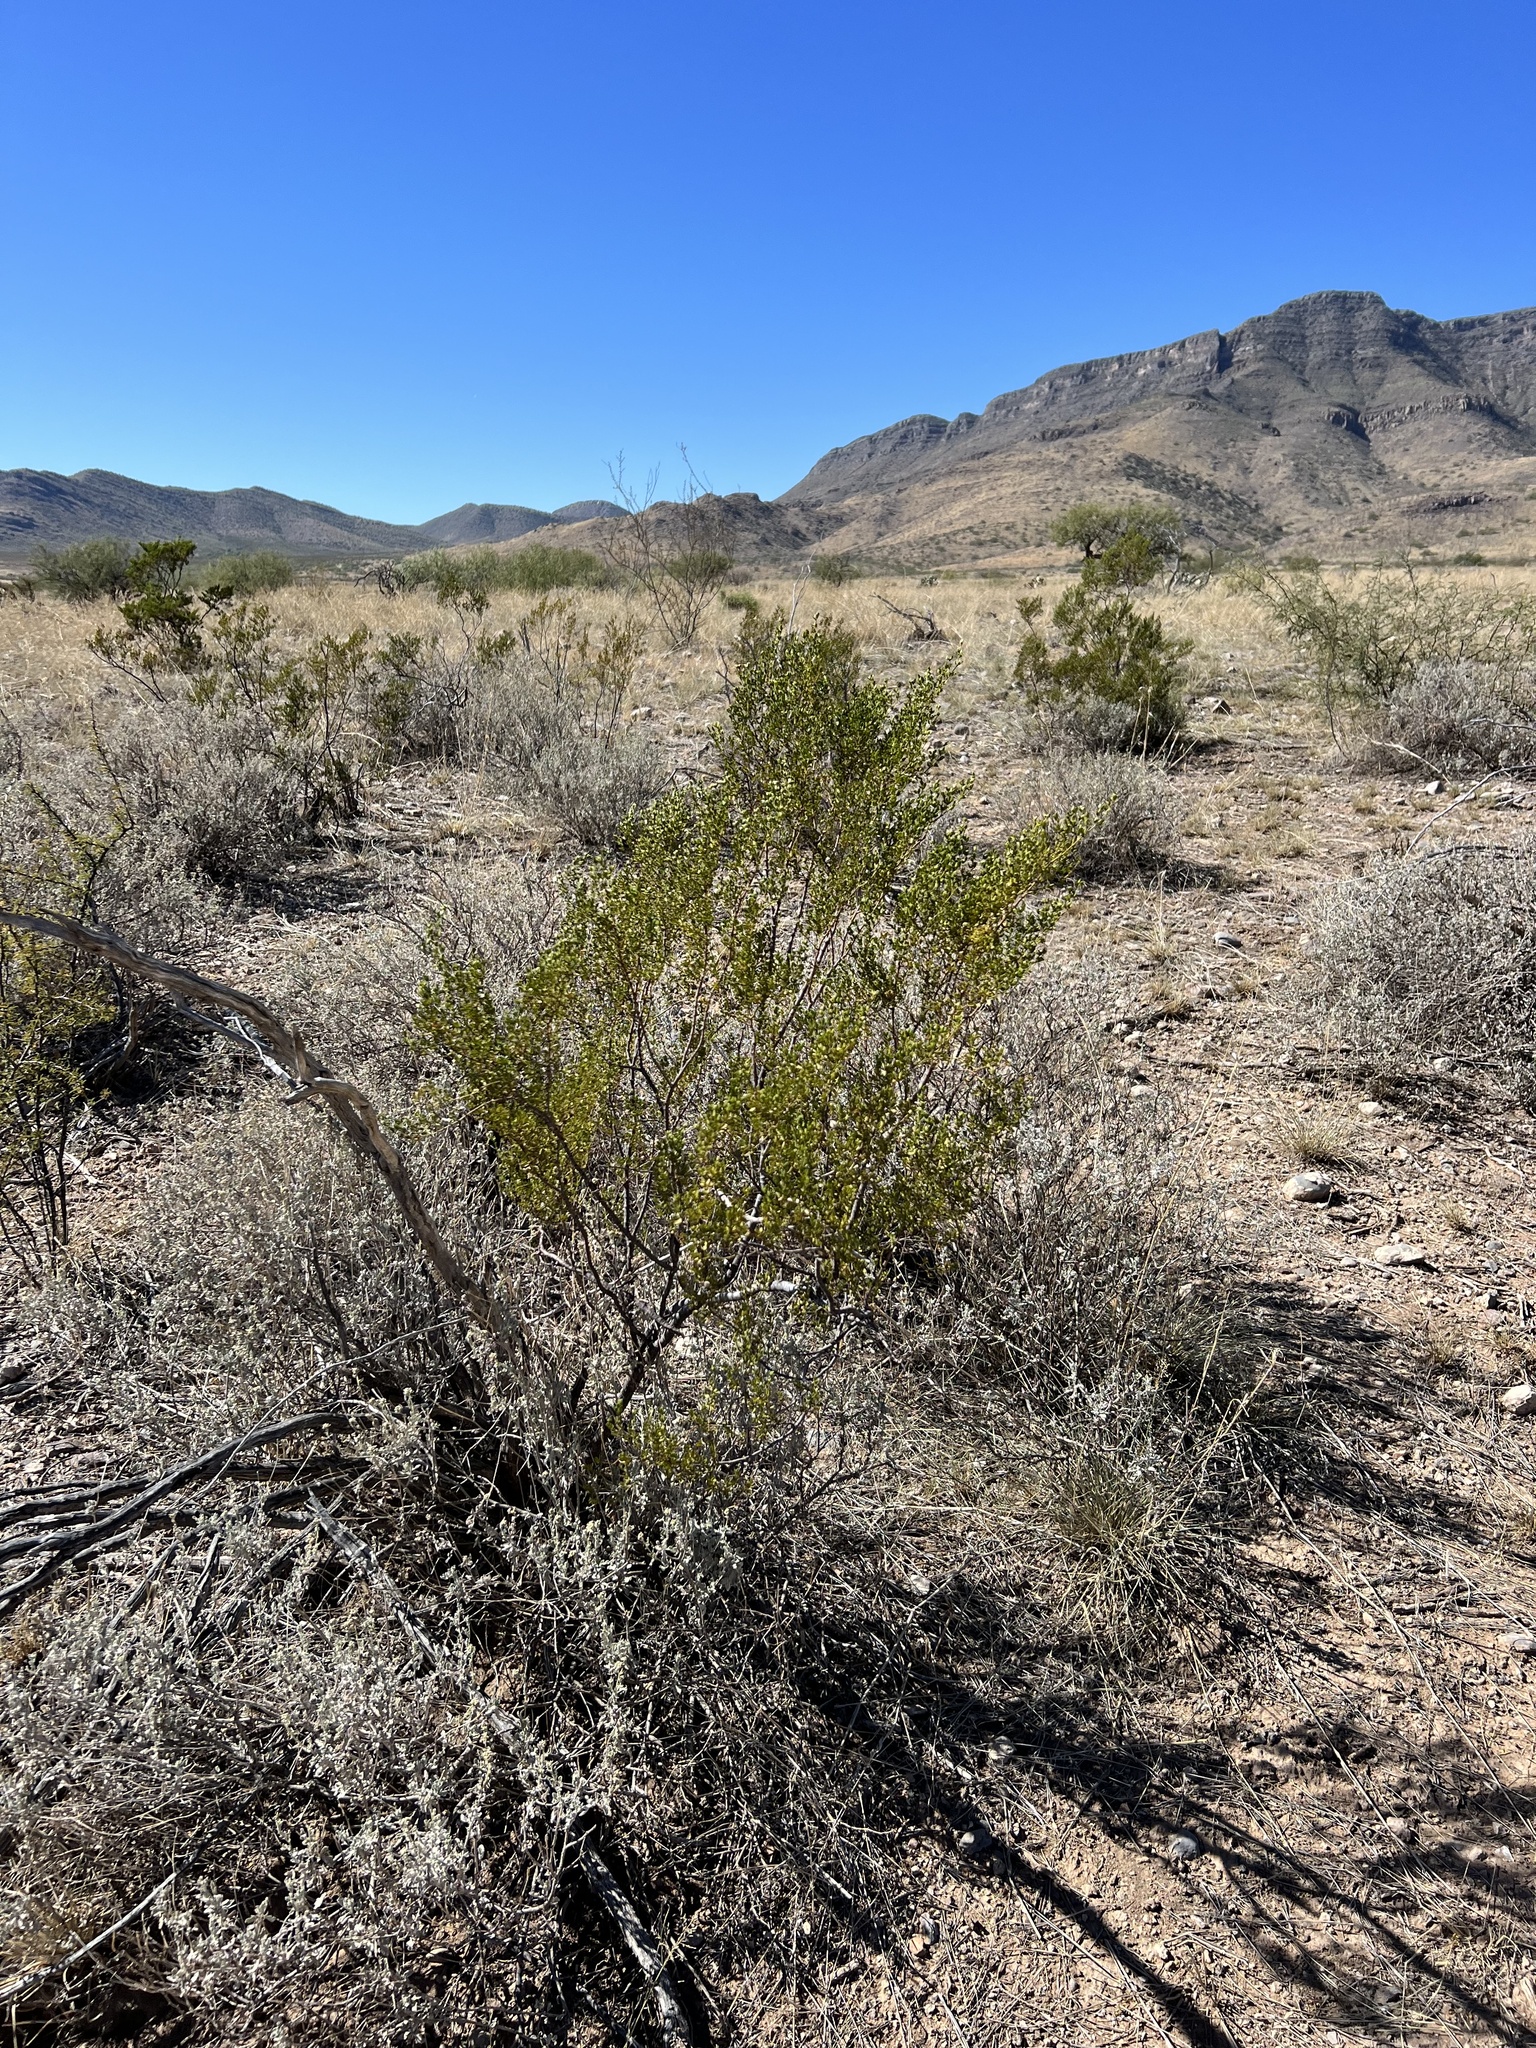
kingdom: Plantae
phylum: Tracheophyta
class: Magnoliopsida
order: Zygophyllales
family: Zygophyllaceae
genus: Larrea
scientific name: Larrea tridentata
